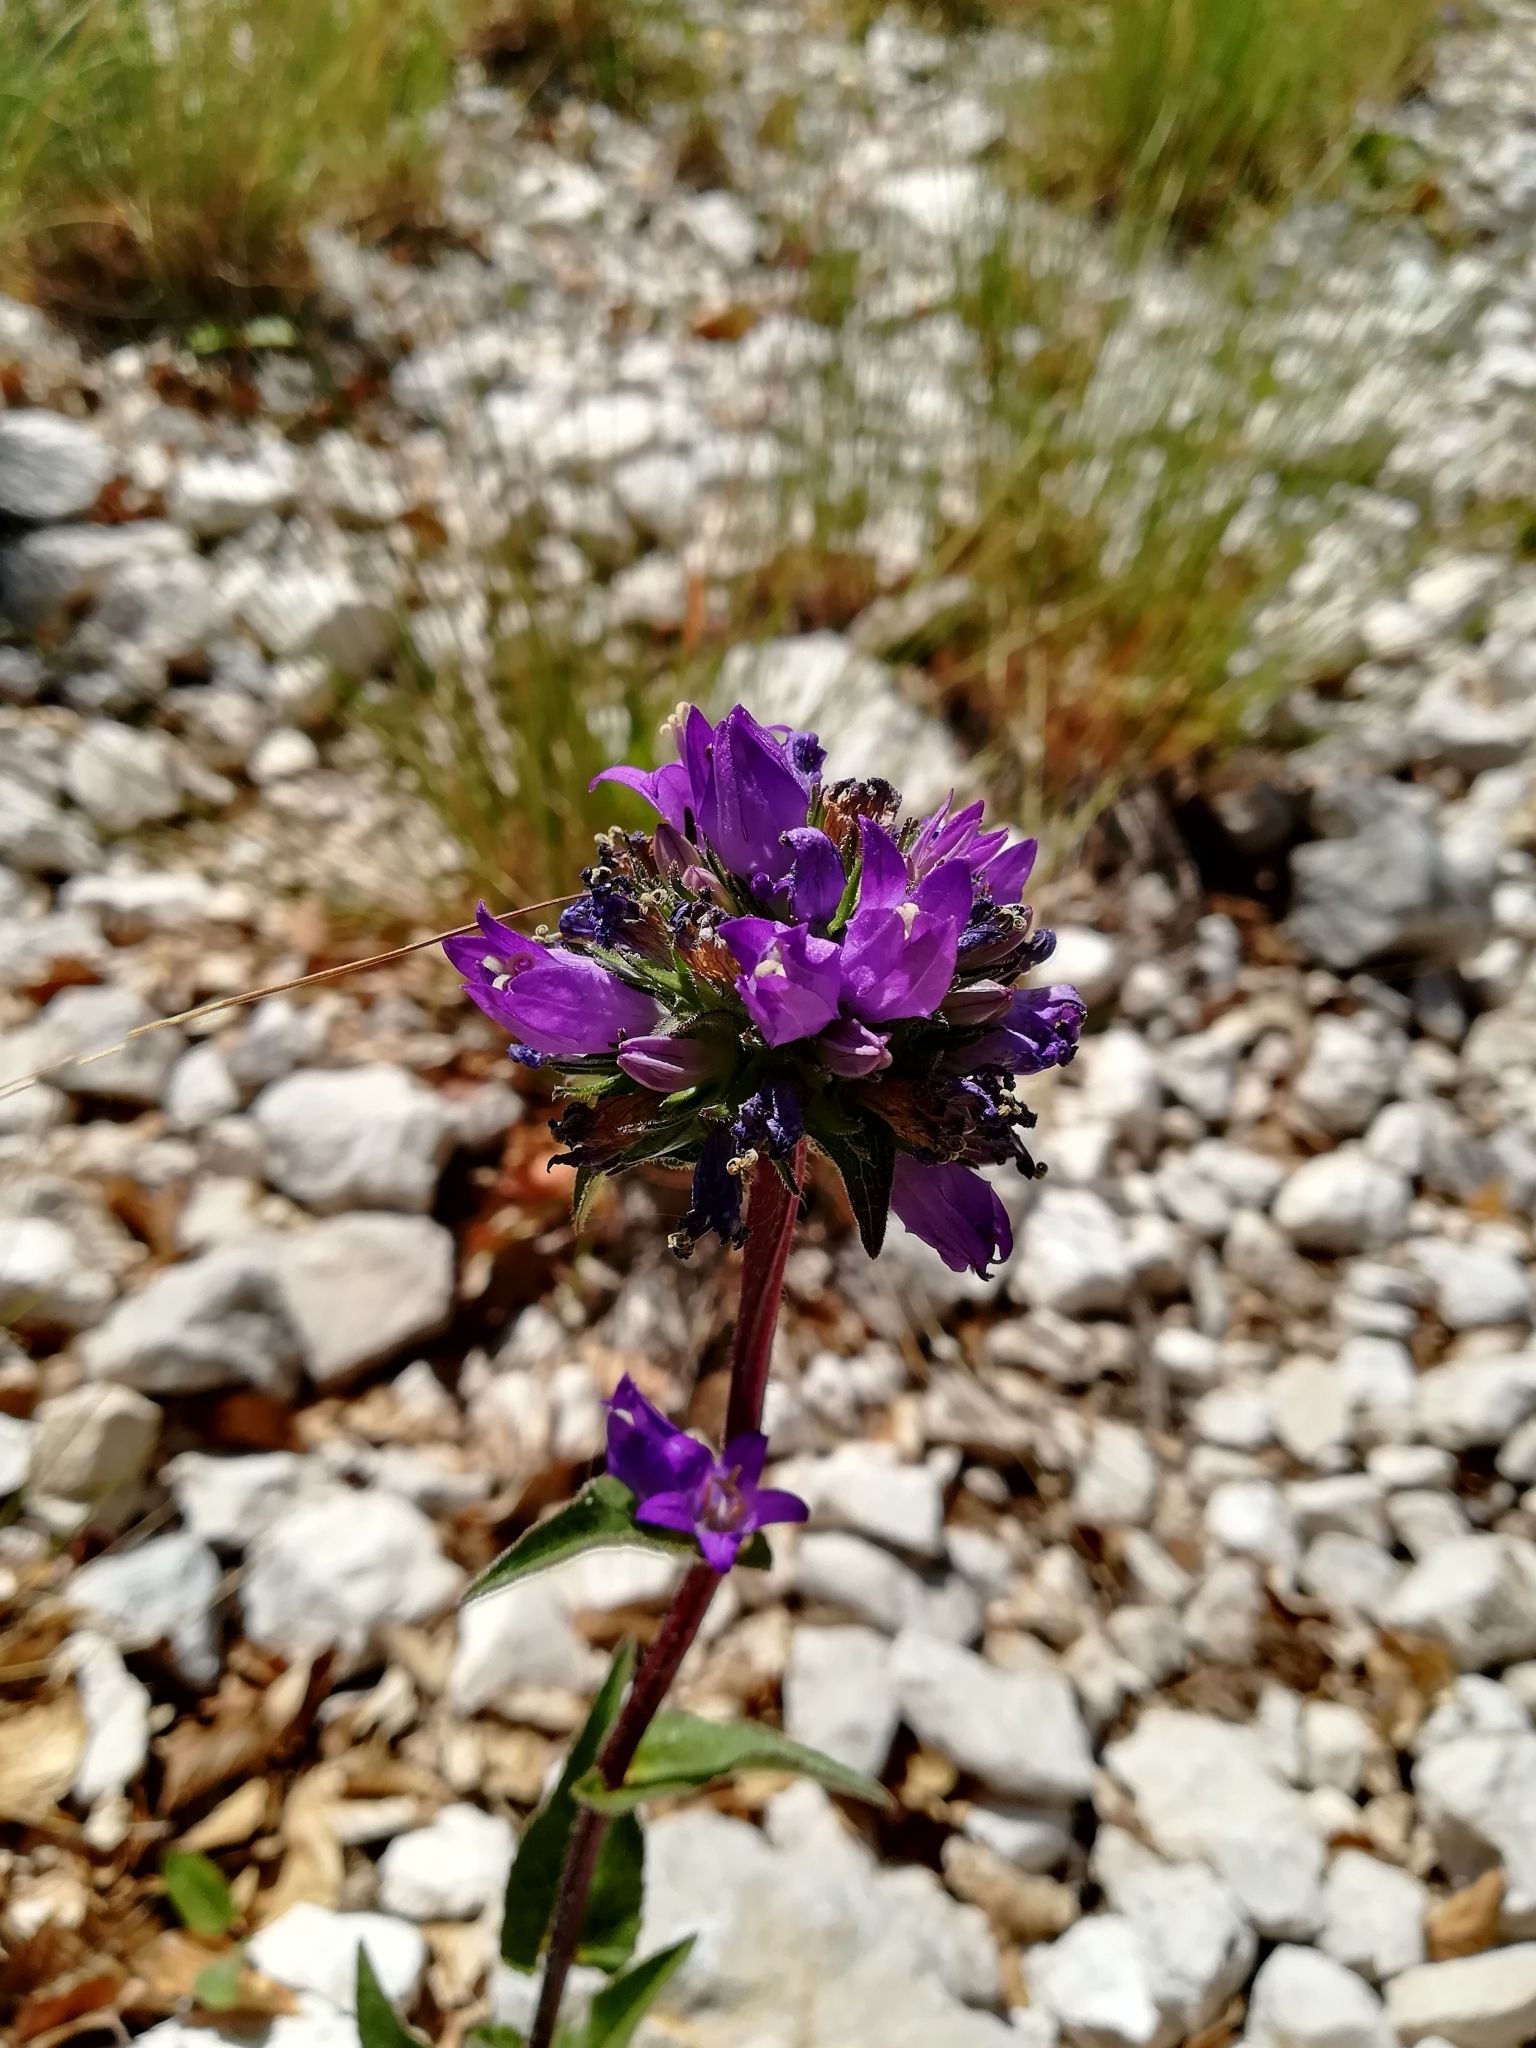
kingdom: Plantae
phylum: Tracheophyta
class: Magnoliopsida
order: Asterales
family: Campanulaceae
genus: Campanula
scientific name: Campanula glomerata
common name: Clustered bellflower
